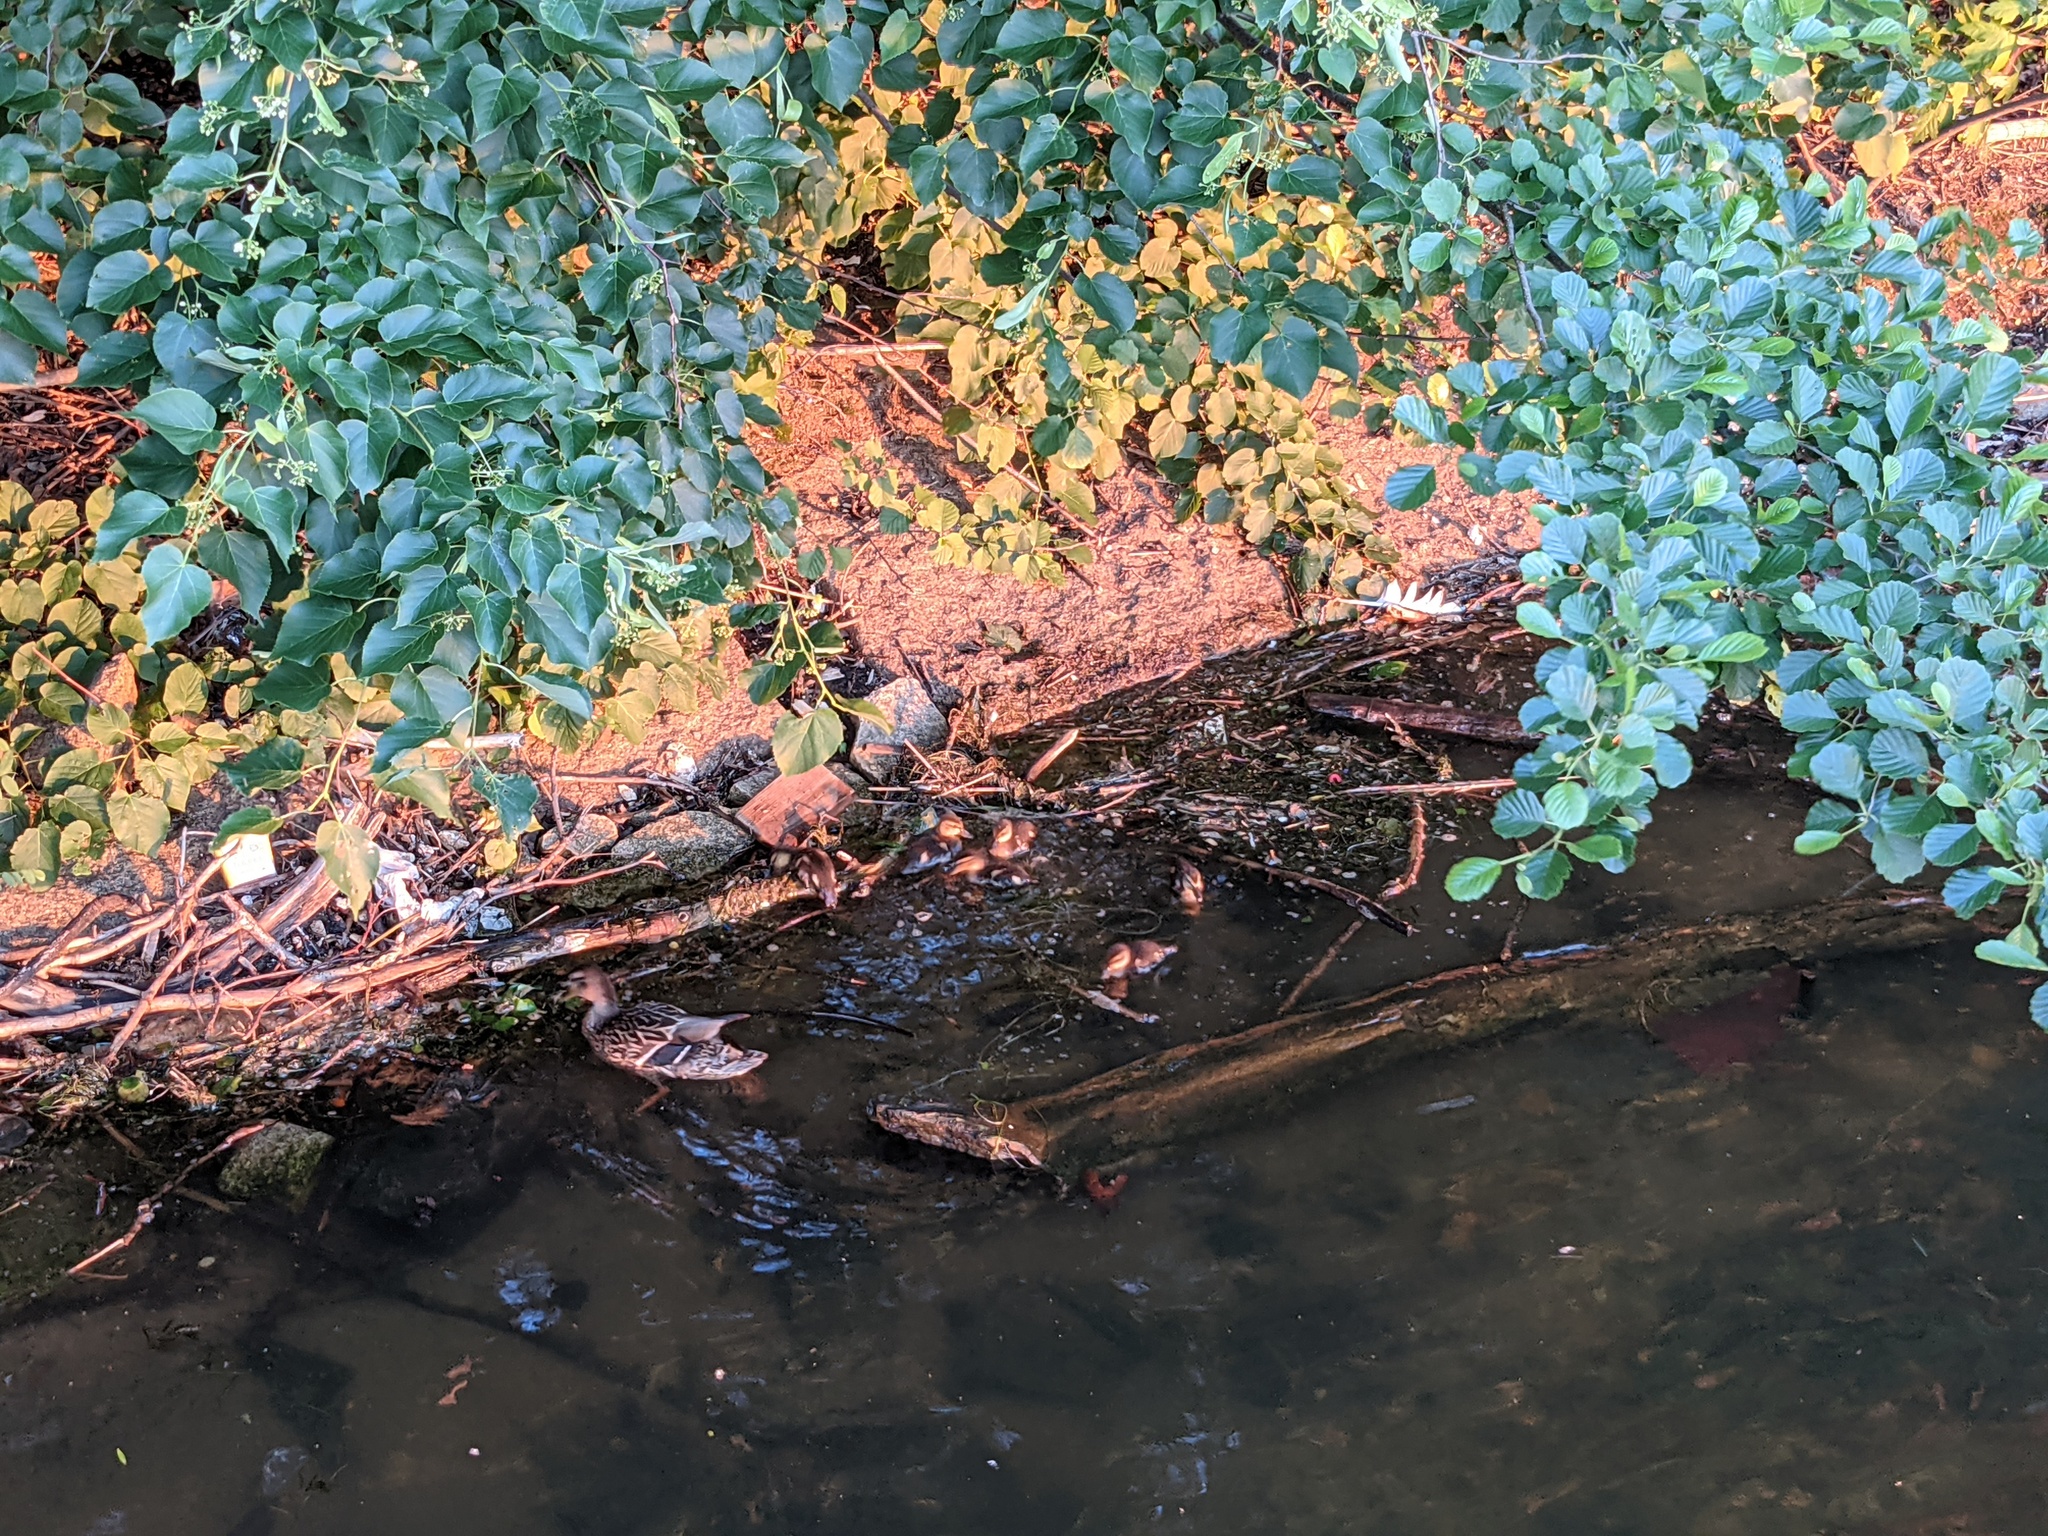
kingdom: Animalia
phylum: Chordata
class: Aves
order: Anseriformes
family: Anatidae
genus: Anas
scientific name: Anas platyrhynchos
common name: Mallard
